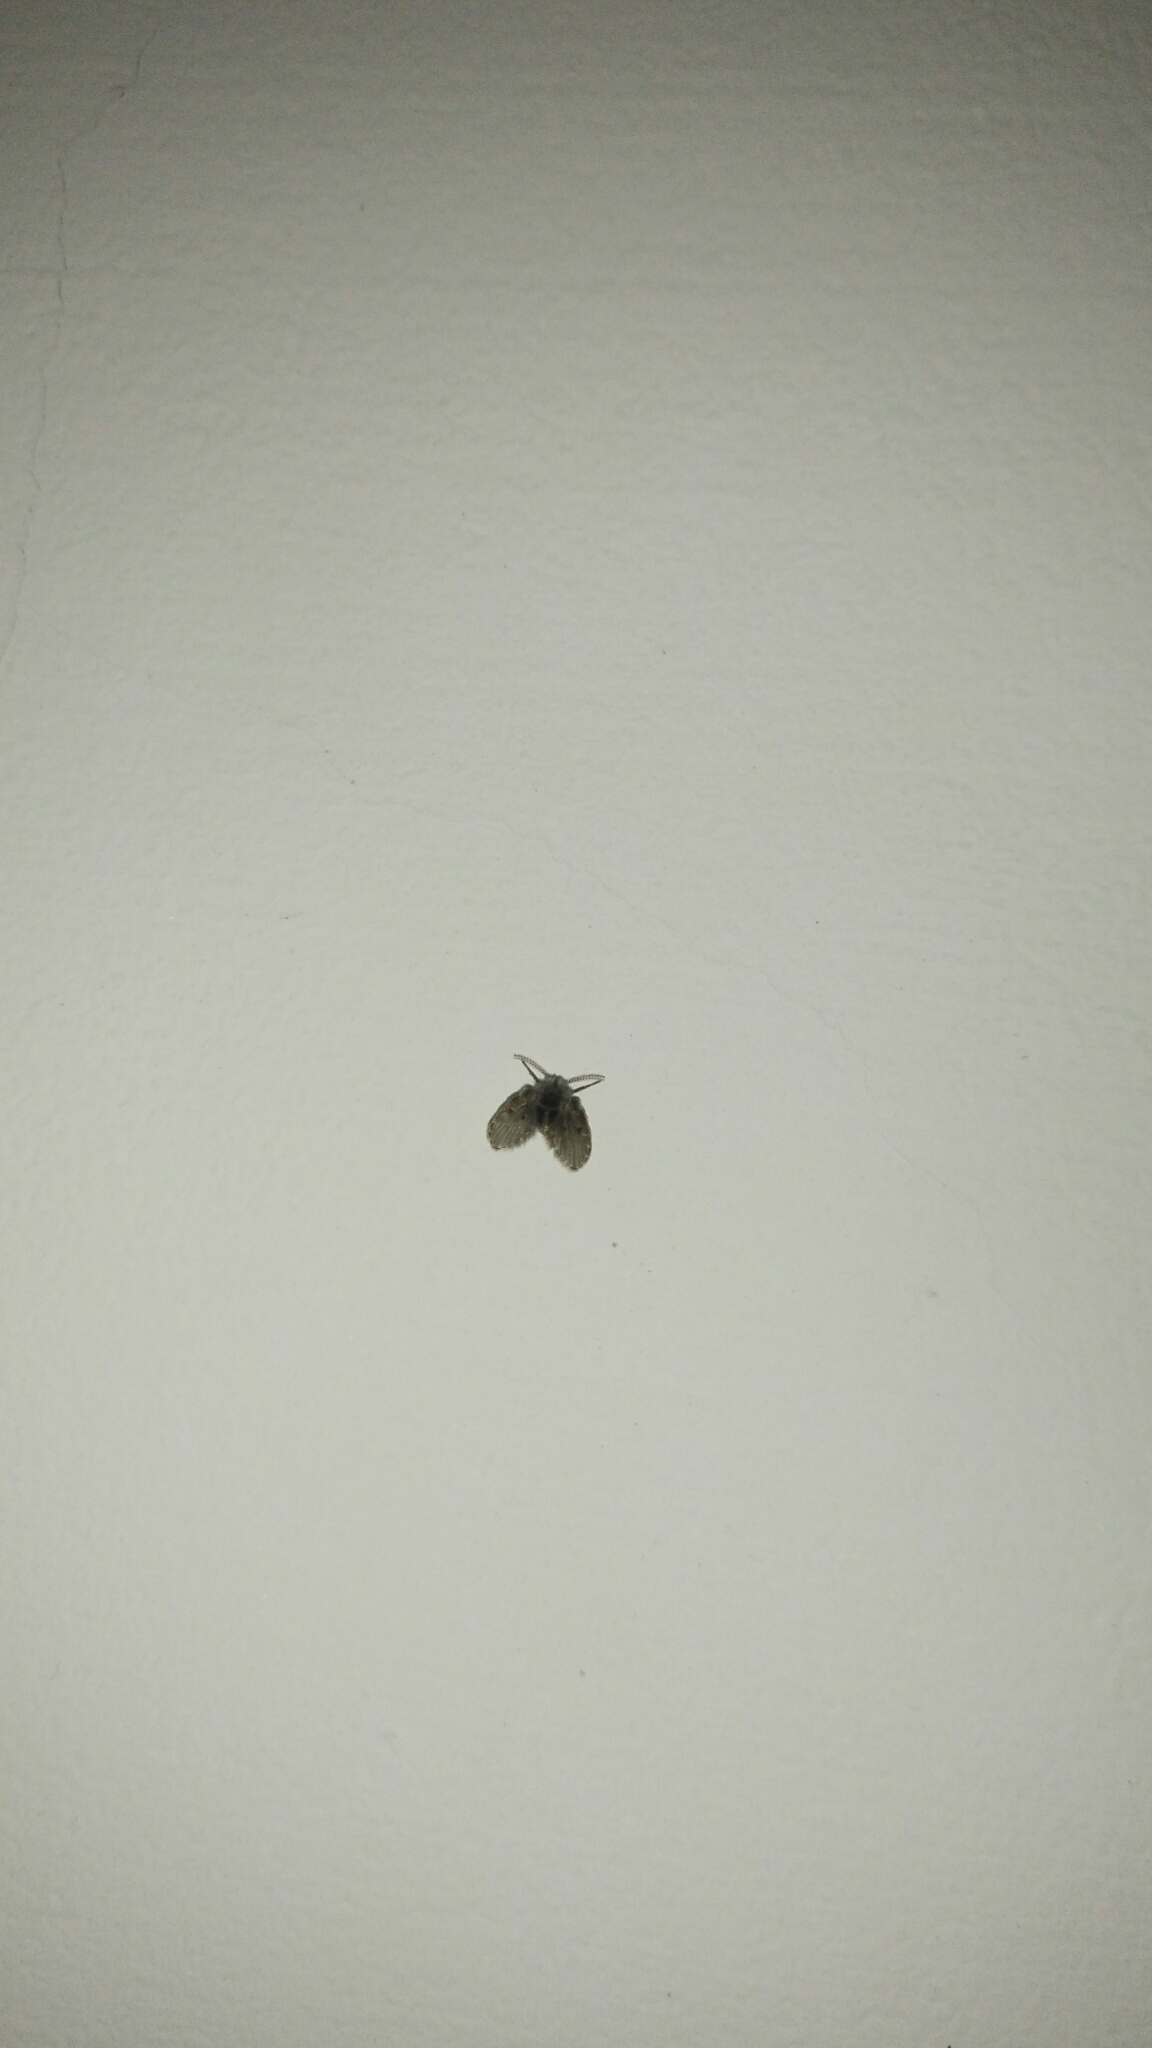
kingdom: Animalia
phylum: Arthropoda
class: Insecta
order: Diptera
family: Psychodidae
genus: Clogmia
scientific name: Clogmia albipunctatus
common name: White-spotted moth fly
